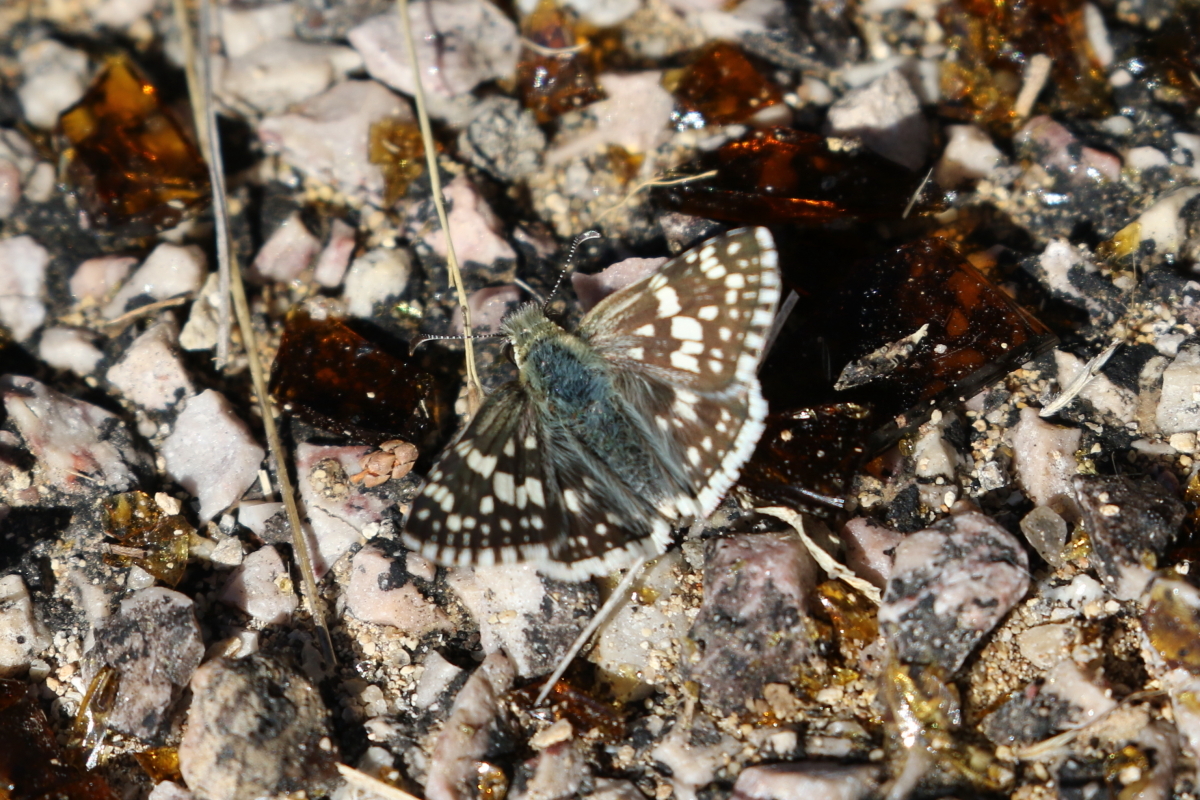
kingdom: Animalia
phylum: Arthropoda
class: Insecta
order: Lepidoptera
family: Hesperiidae
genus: Burnsius
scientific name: Burnsius
